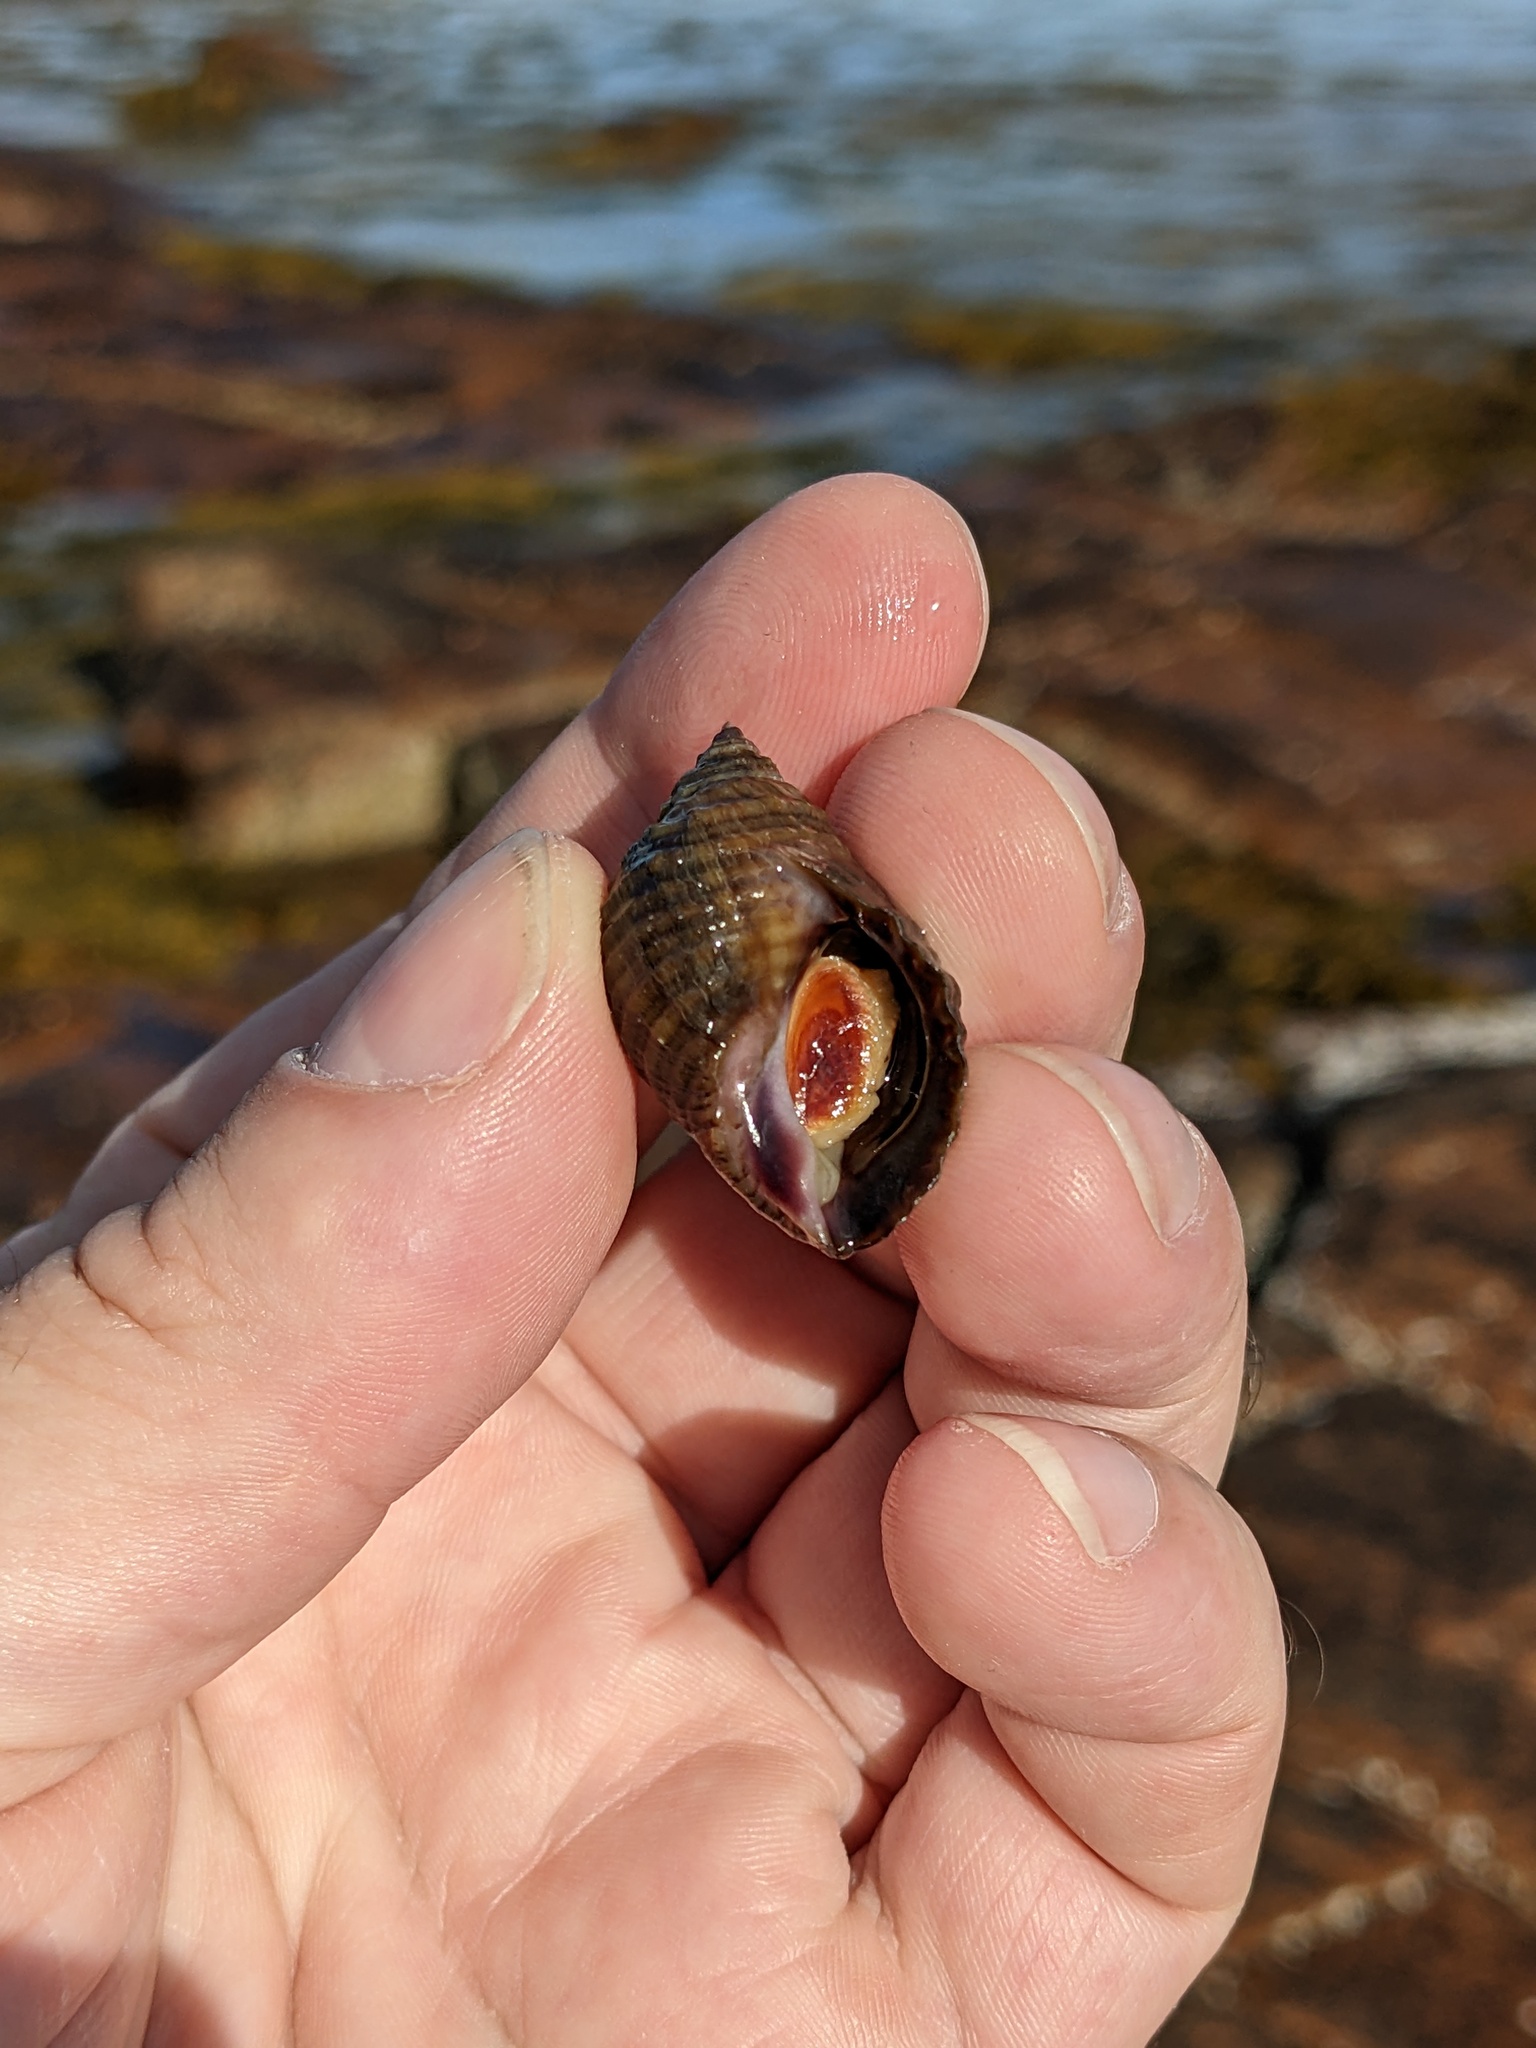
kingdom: Animalia
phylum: Mollusca
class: Gastropoda
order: Neogastropoda
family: Muricidae
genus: Nucella
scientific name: Nucella lapillus
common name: Dog whelk
